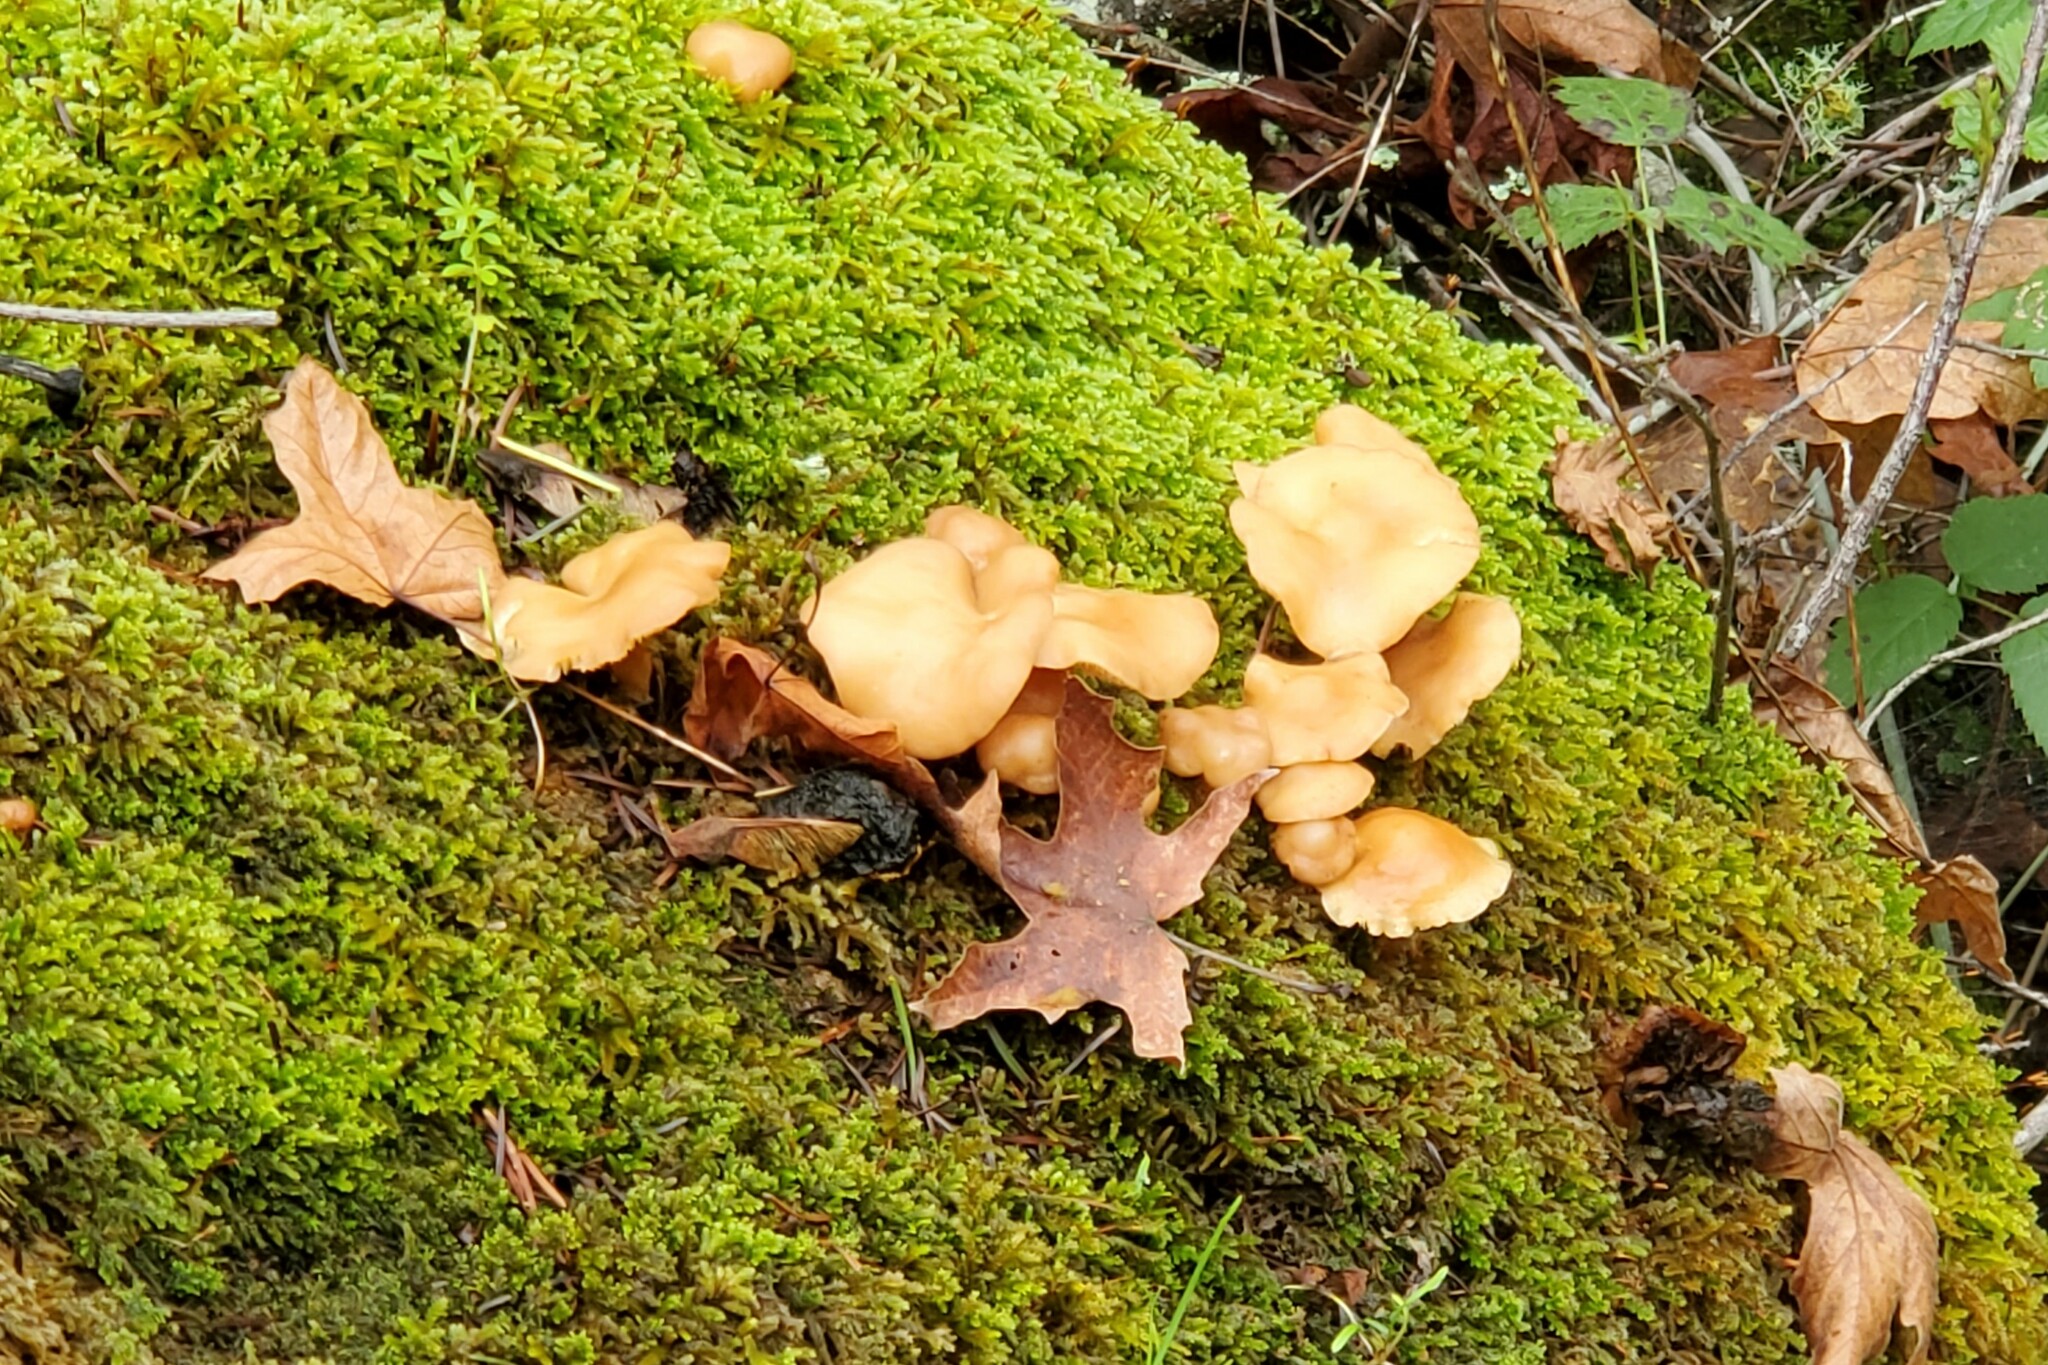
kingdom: Fungi
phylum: Basidiomycota
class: Agaricomycetes
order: Agaricales
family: Omphalotaceae
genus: Gymnopus
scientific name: Gymnopus dryophilus
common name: Penny top
